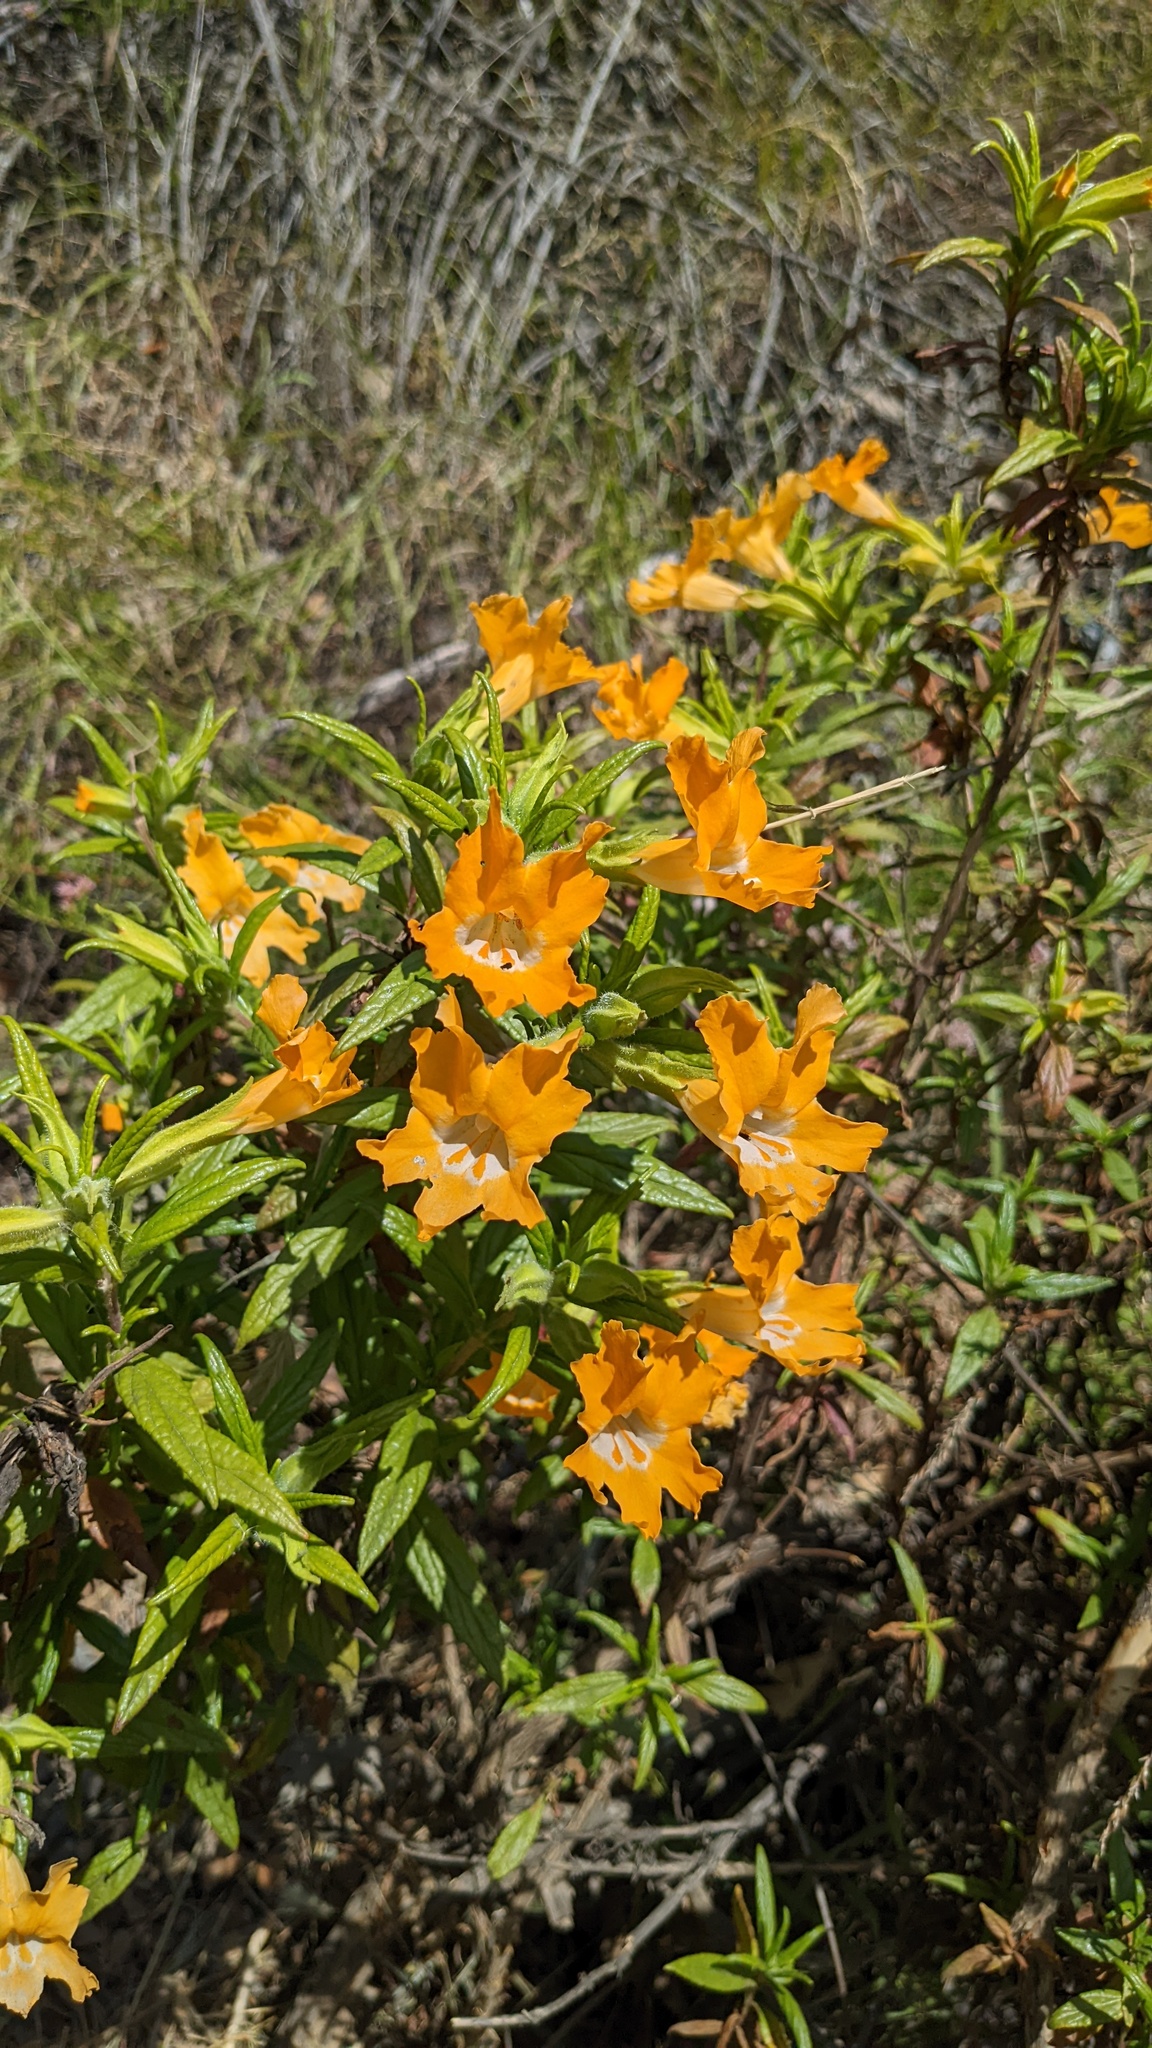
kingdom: Plantae
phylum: Tracheophyta
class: Magnoliopsida
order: Lamiales
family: Phrymaceae
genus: Diplacus
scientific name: Diplacus longiflorus
